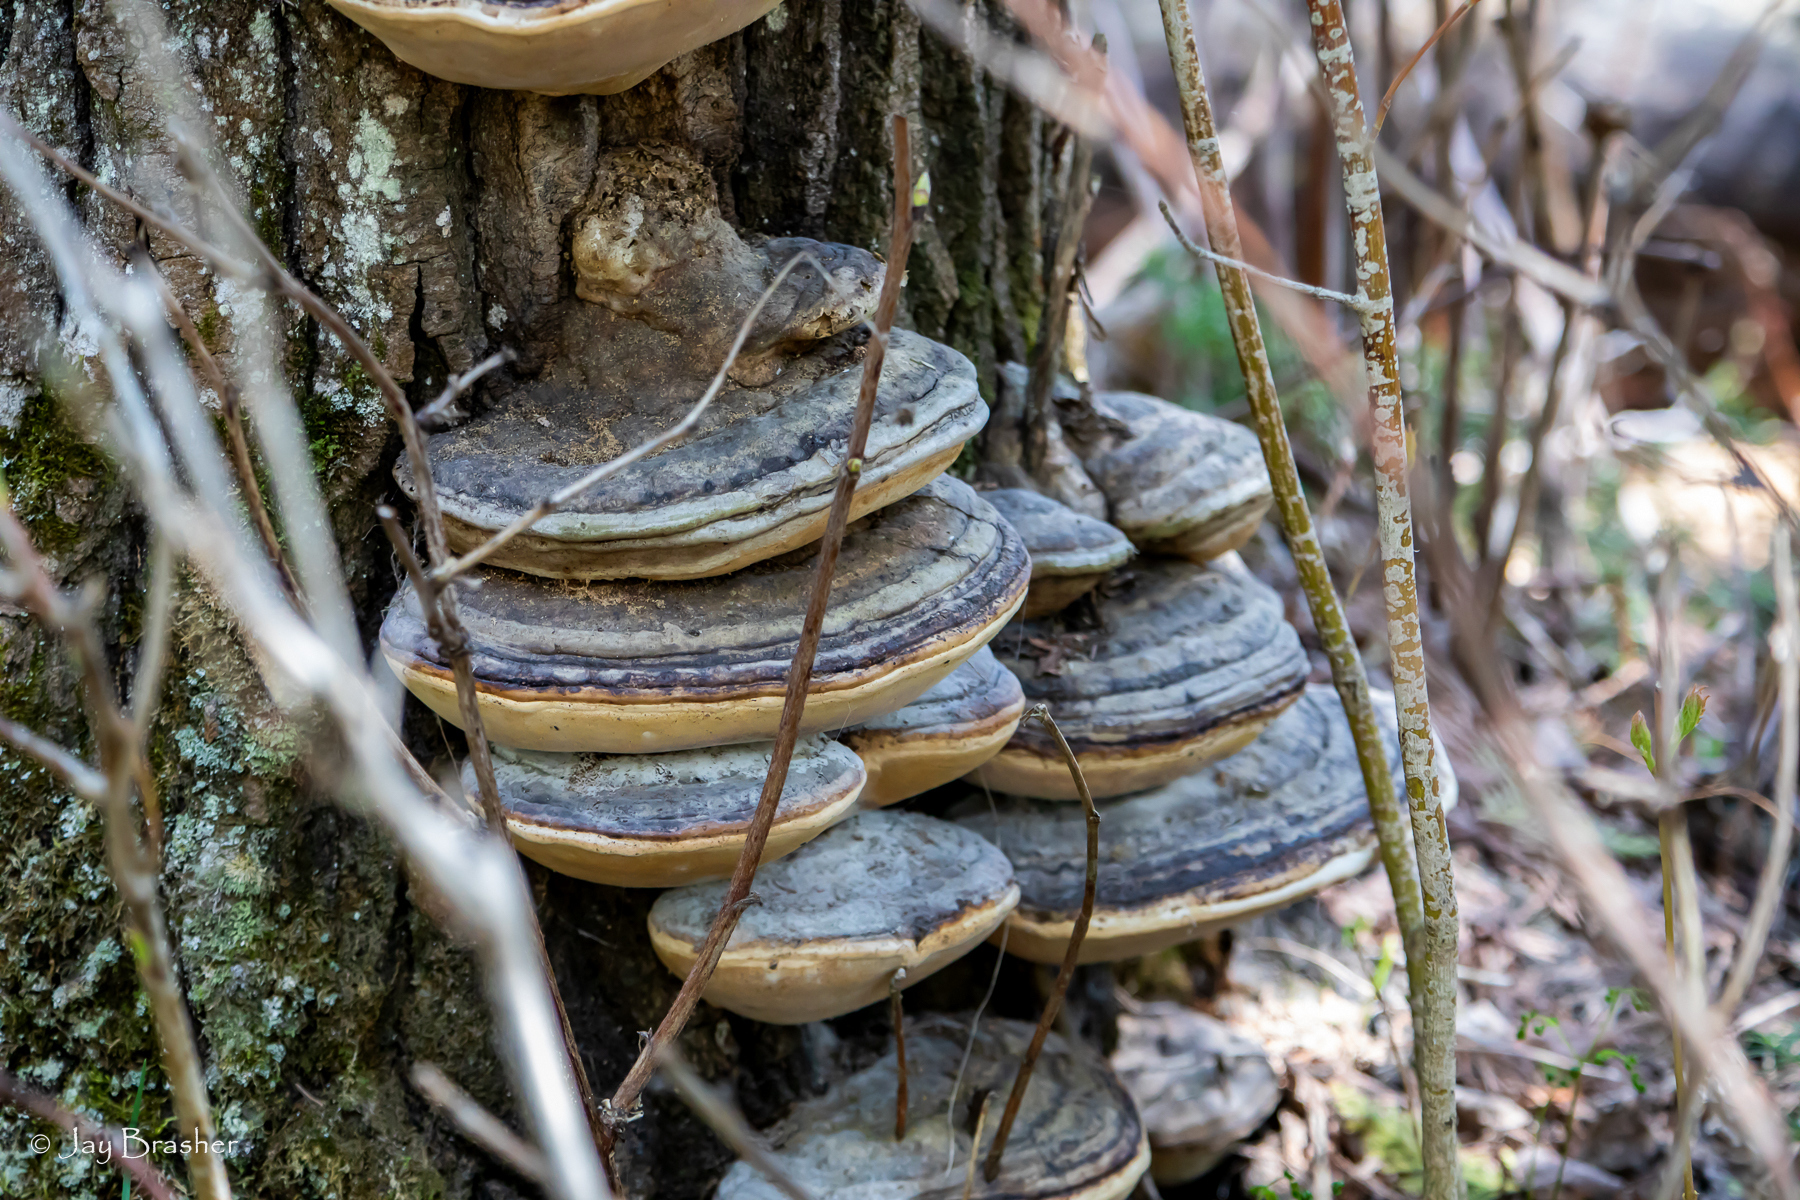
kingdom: Fungi
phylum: Basidiomycota
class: Agaricomycetes
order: Polyporales
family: Fomitopsidaceae
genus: Fomitopsis
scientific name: Fomitopsis mounceae
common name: Northern red belt
